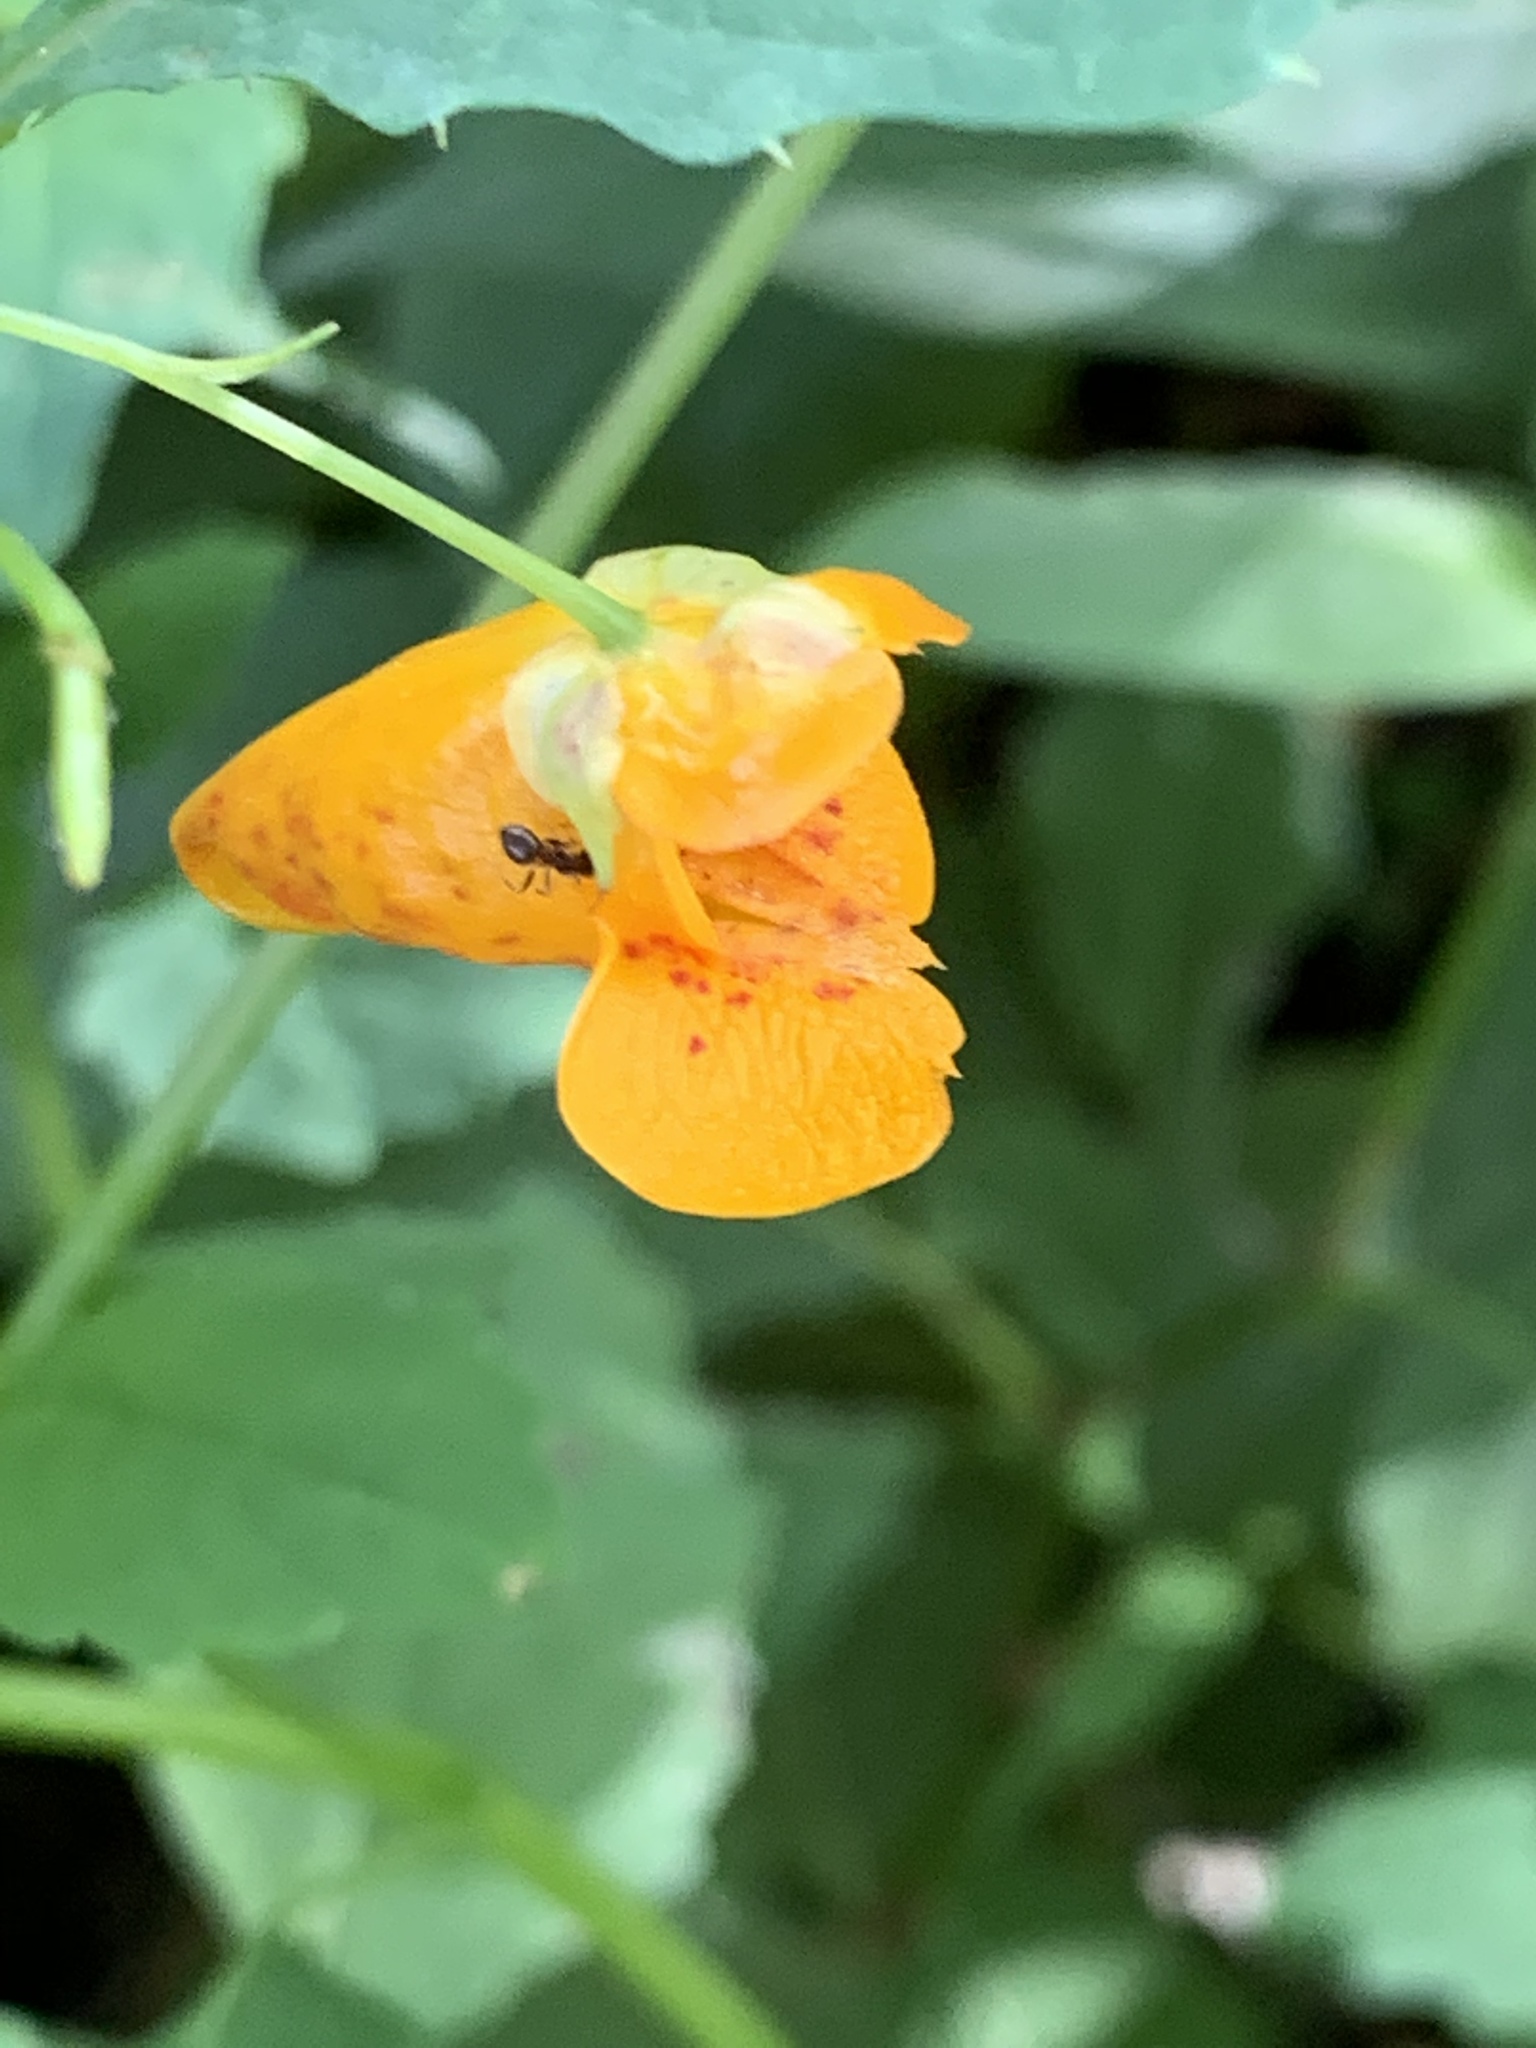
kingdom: Plantae
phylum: Tracheophyta
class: Magnoliopsida
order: Ericales
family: Balsaminaceae
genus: Impatiens
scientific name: Impatiens capensis
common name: Orange balsam
